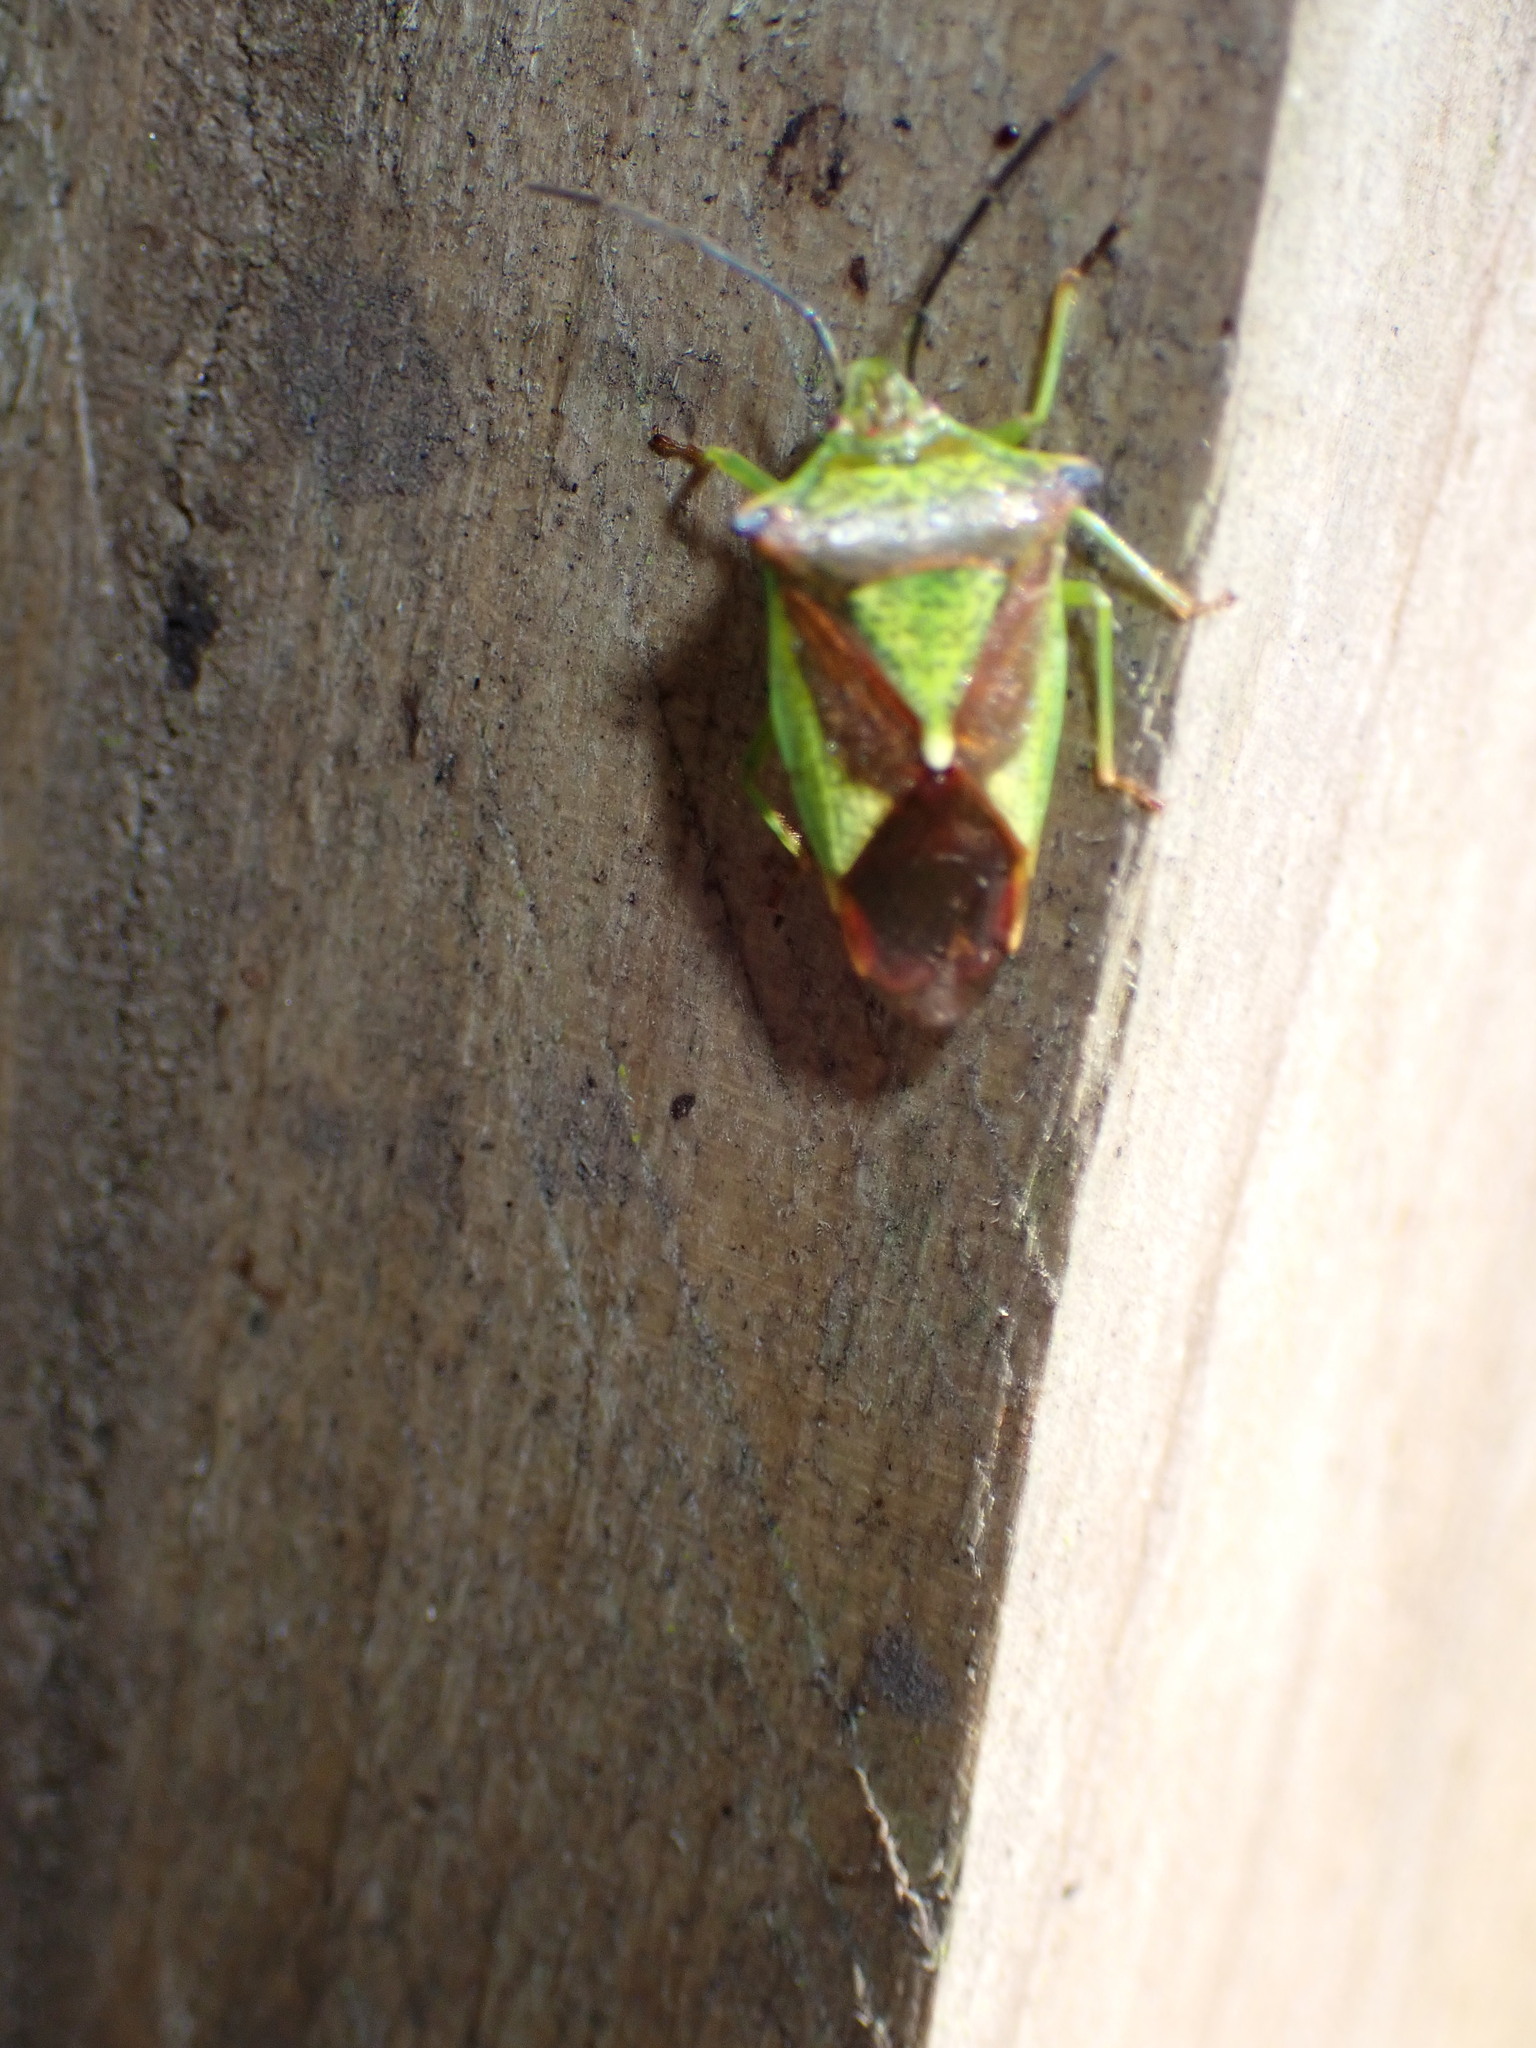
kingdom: Animalia
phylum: Arthropoda
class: Insecta
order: Hemiptera
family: Acanthosomatidae
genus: Acanthosoma
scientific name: Acanthosoma haemorrhoidale
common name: Hawthorn shieldbug
